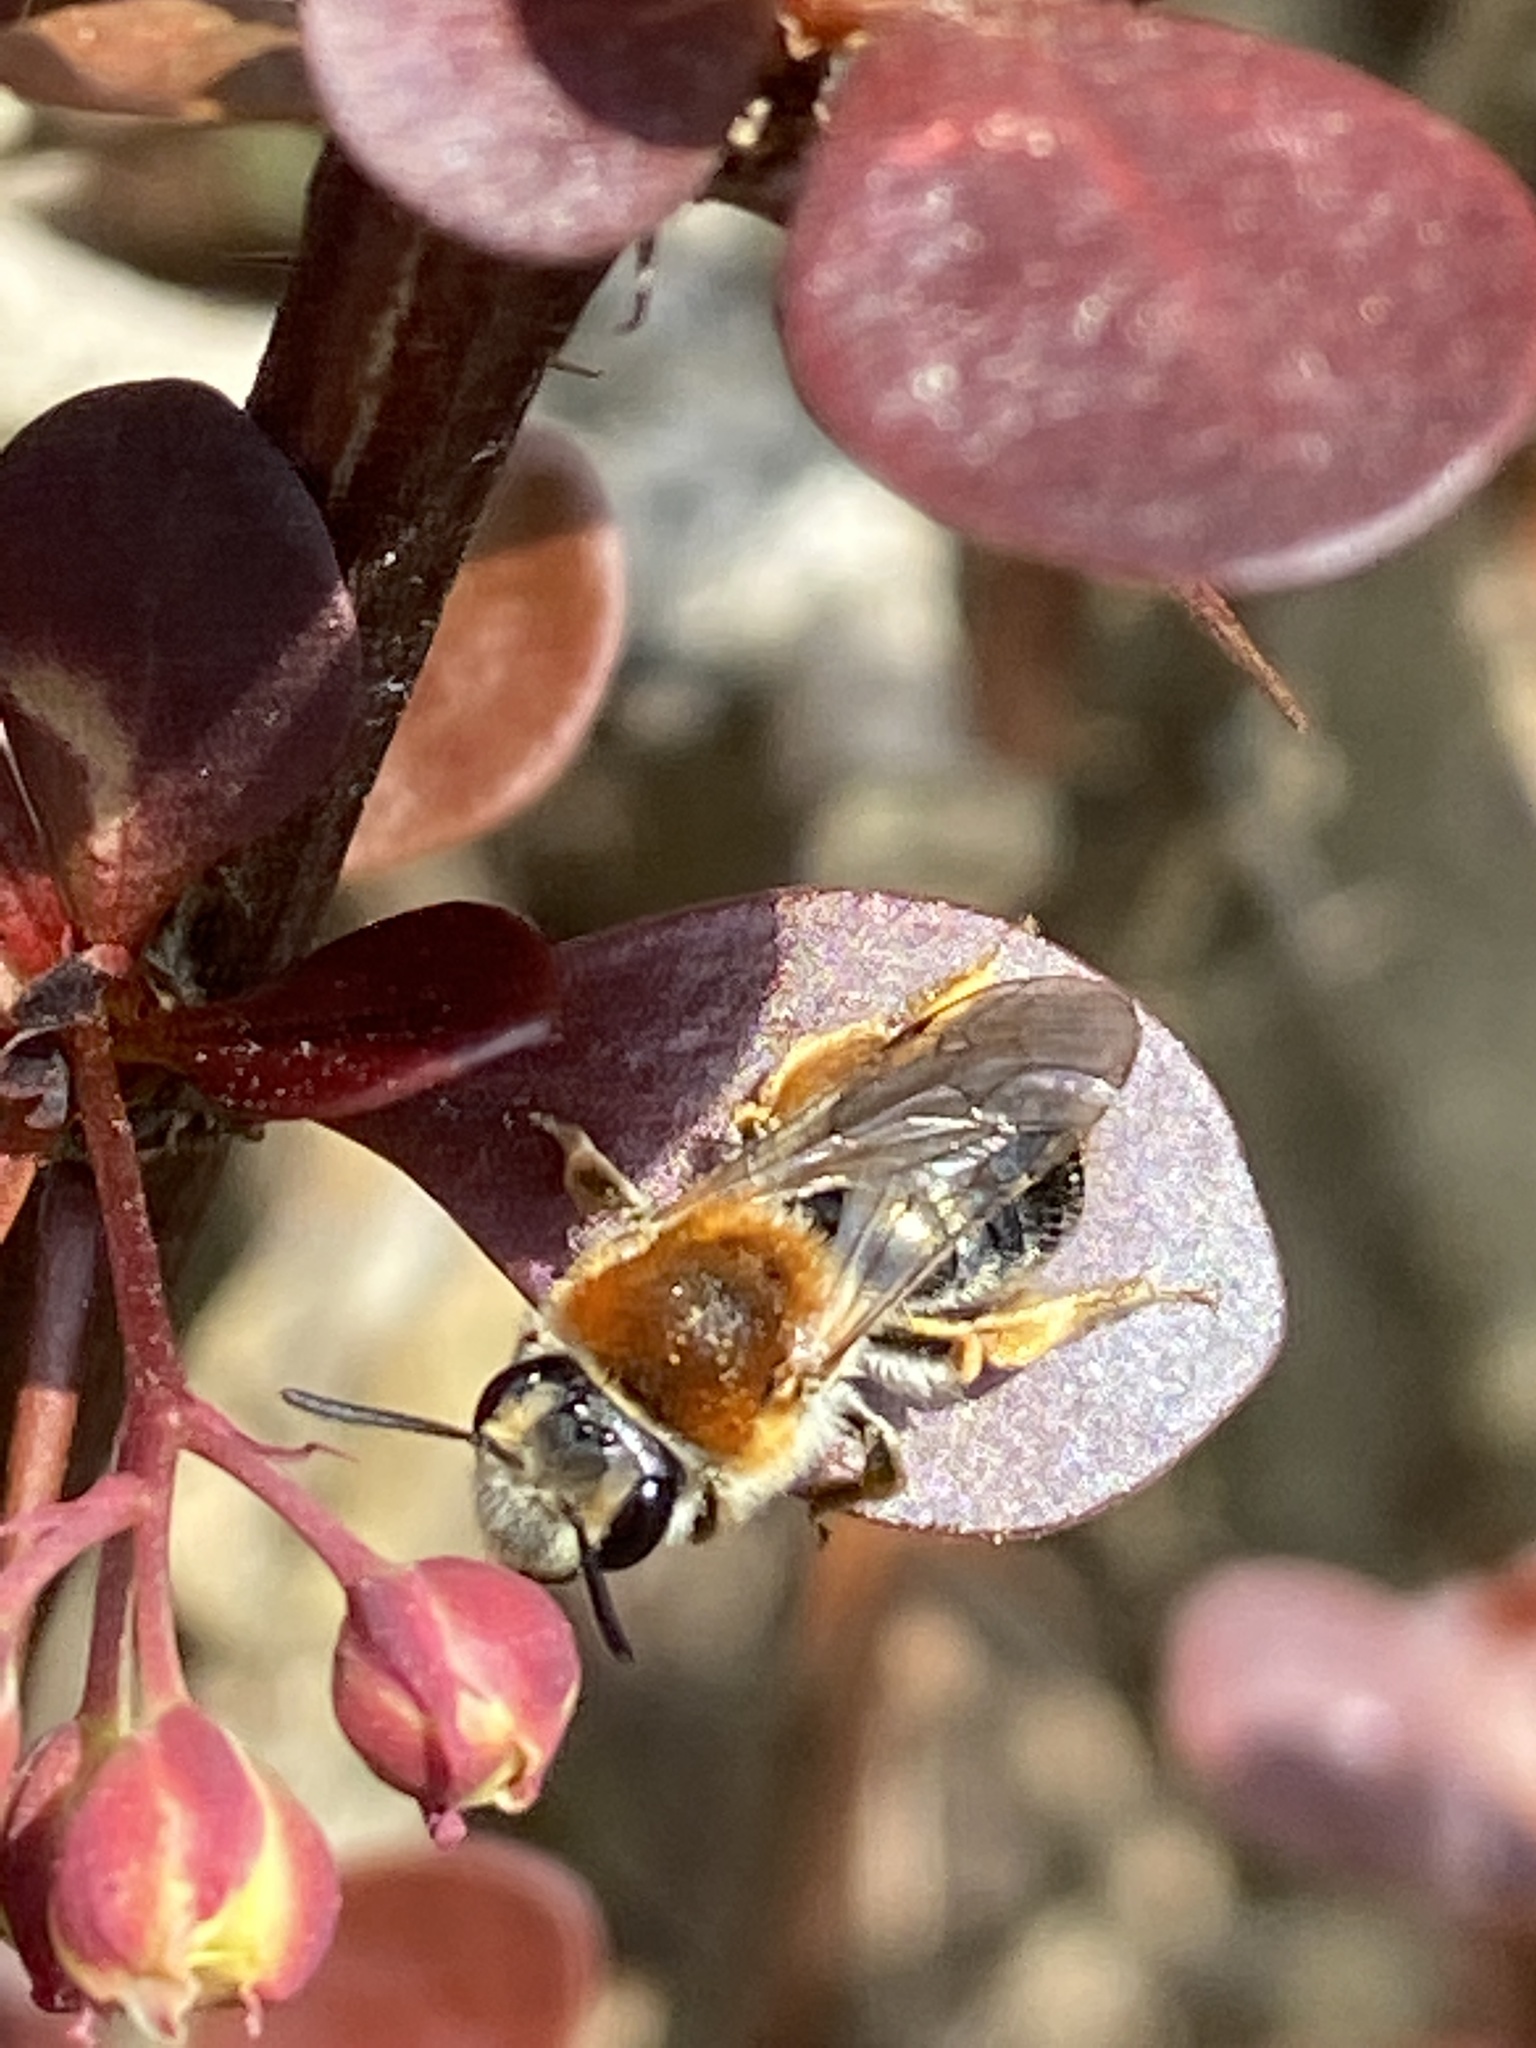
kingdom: Animalia
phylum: Arthropoda
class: Insecta
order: Hymenoptera
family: Andrenidae
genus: Andrena
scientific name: Andrena haemorrhoa
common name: Early mining bee
